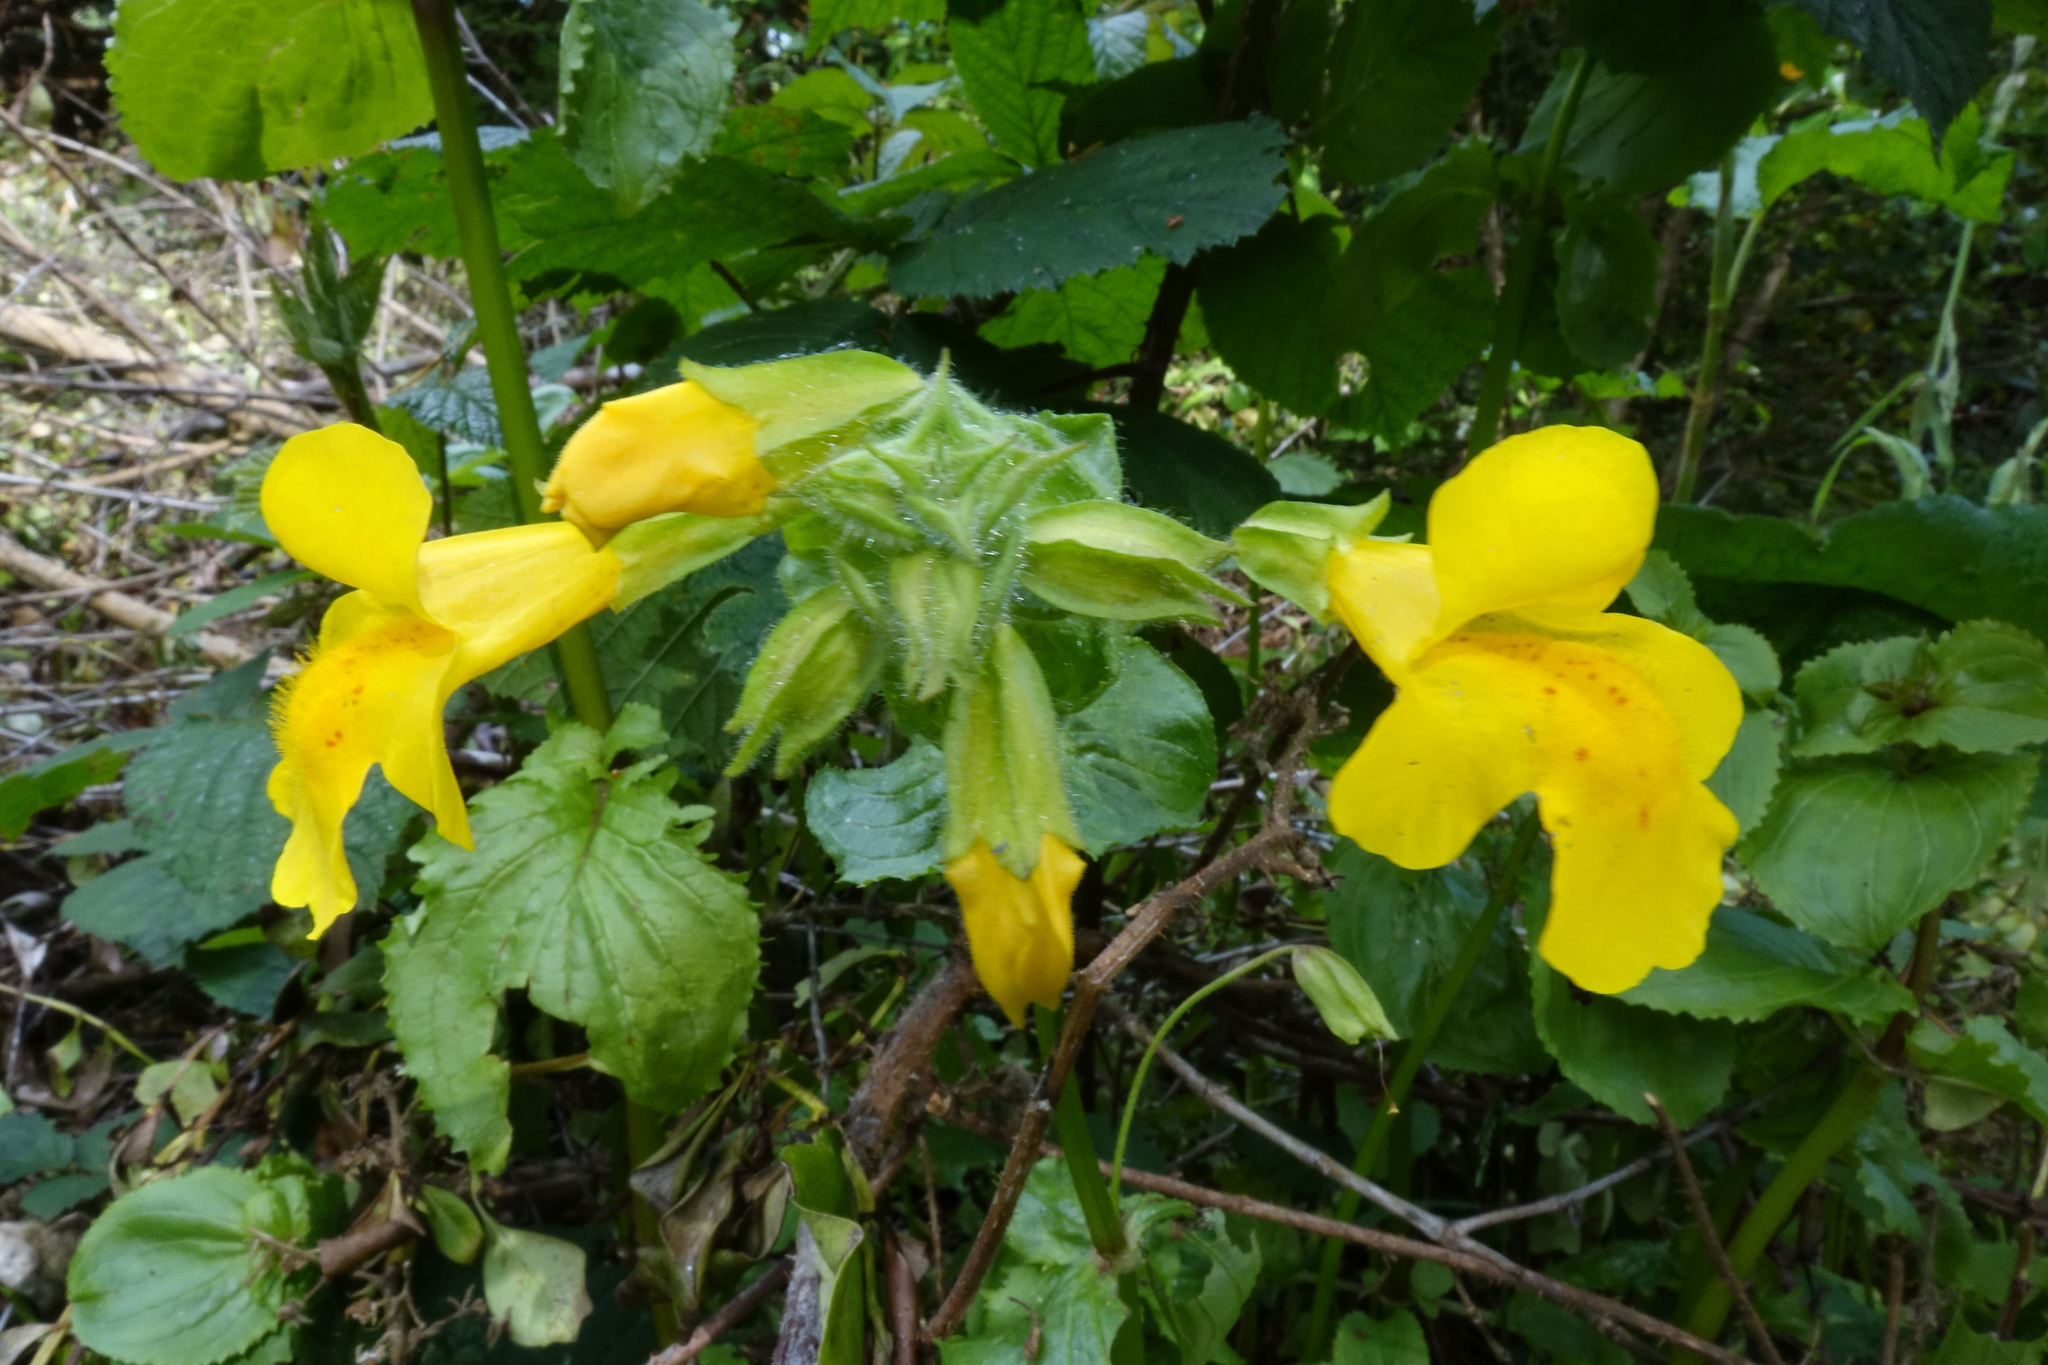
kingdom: Plantae
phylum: Tracheophyta
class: Magnoliopsida
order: Lamiales
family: Phrymaceae
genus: Erythranthe
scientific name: Erythranthe guttata
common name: Monkeyflower
